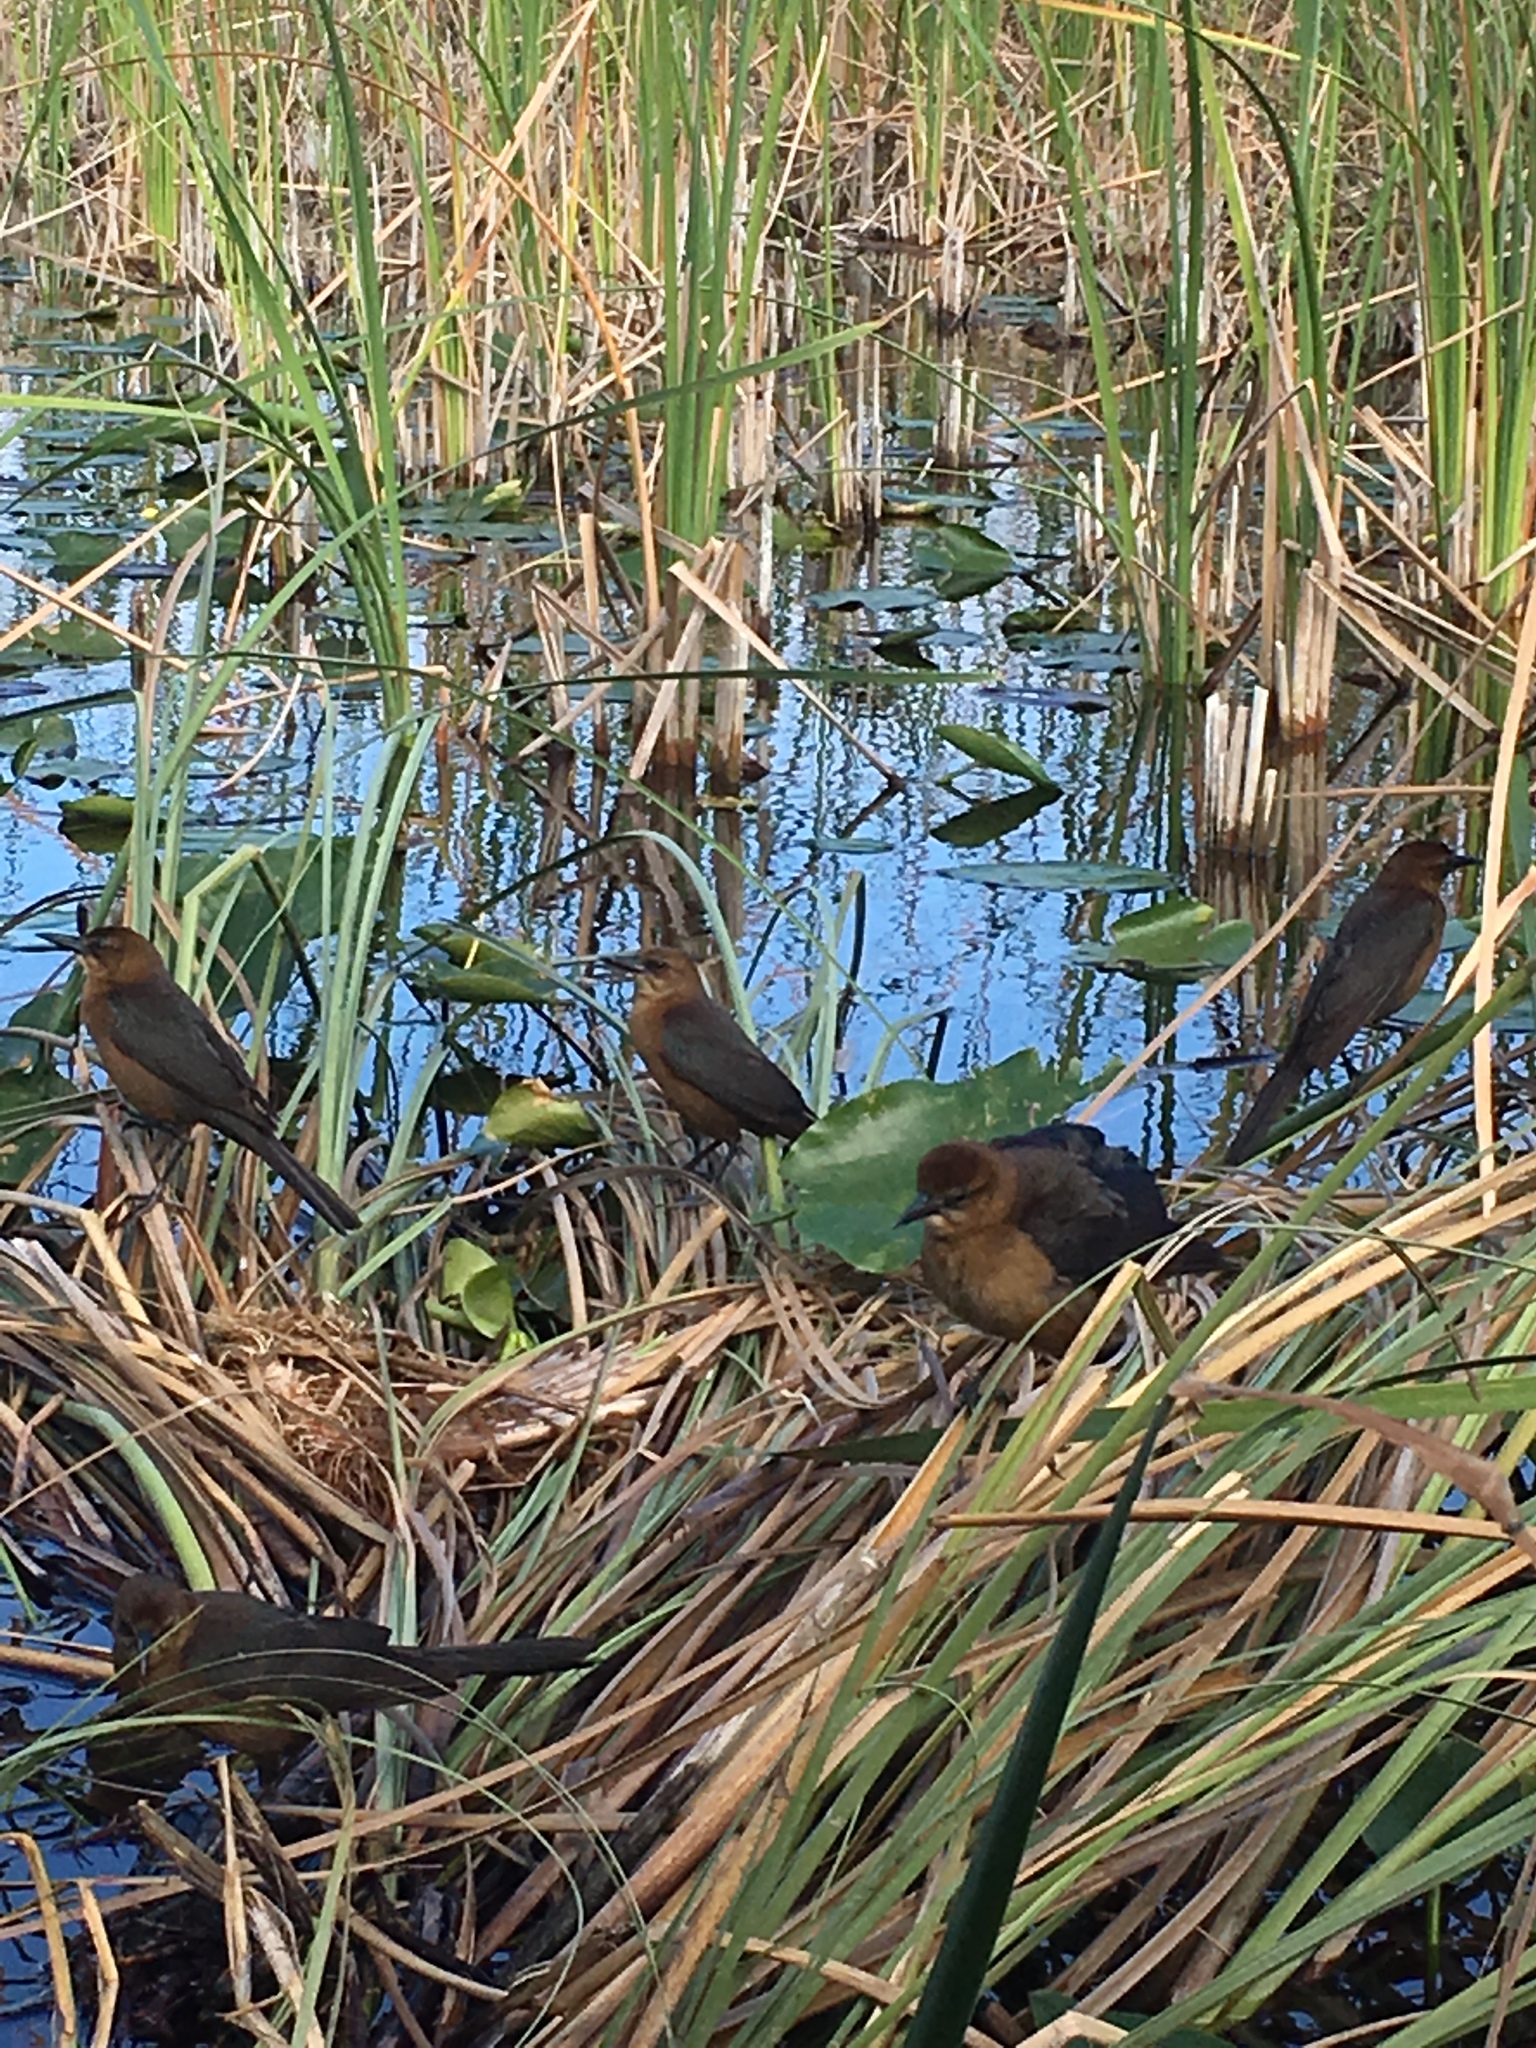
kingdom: Animalia
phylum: Chordata
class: Aves
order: Passeriformes
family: Icteridae
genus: Quiscalus
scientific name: Quiscalus major
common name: Boat-tailed grackle
